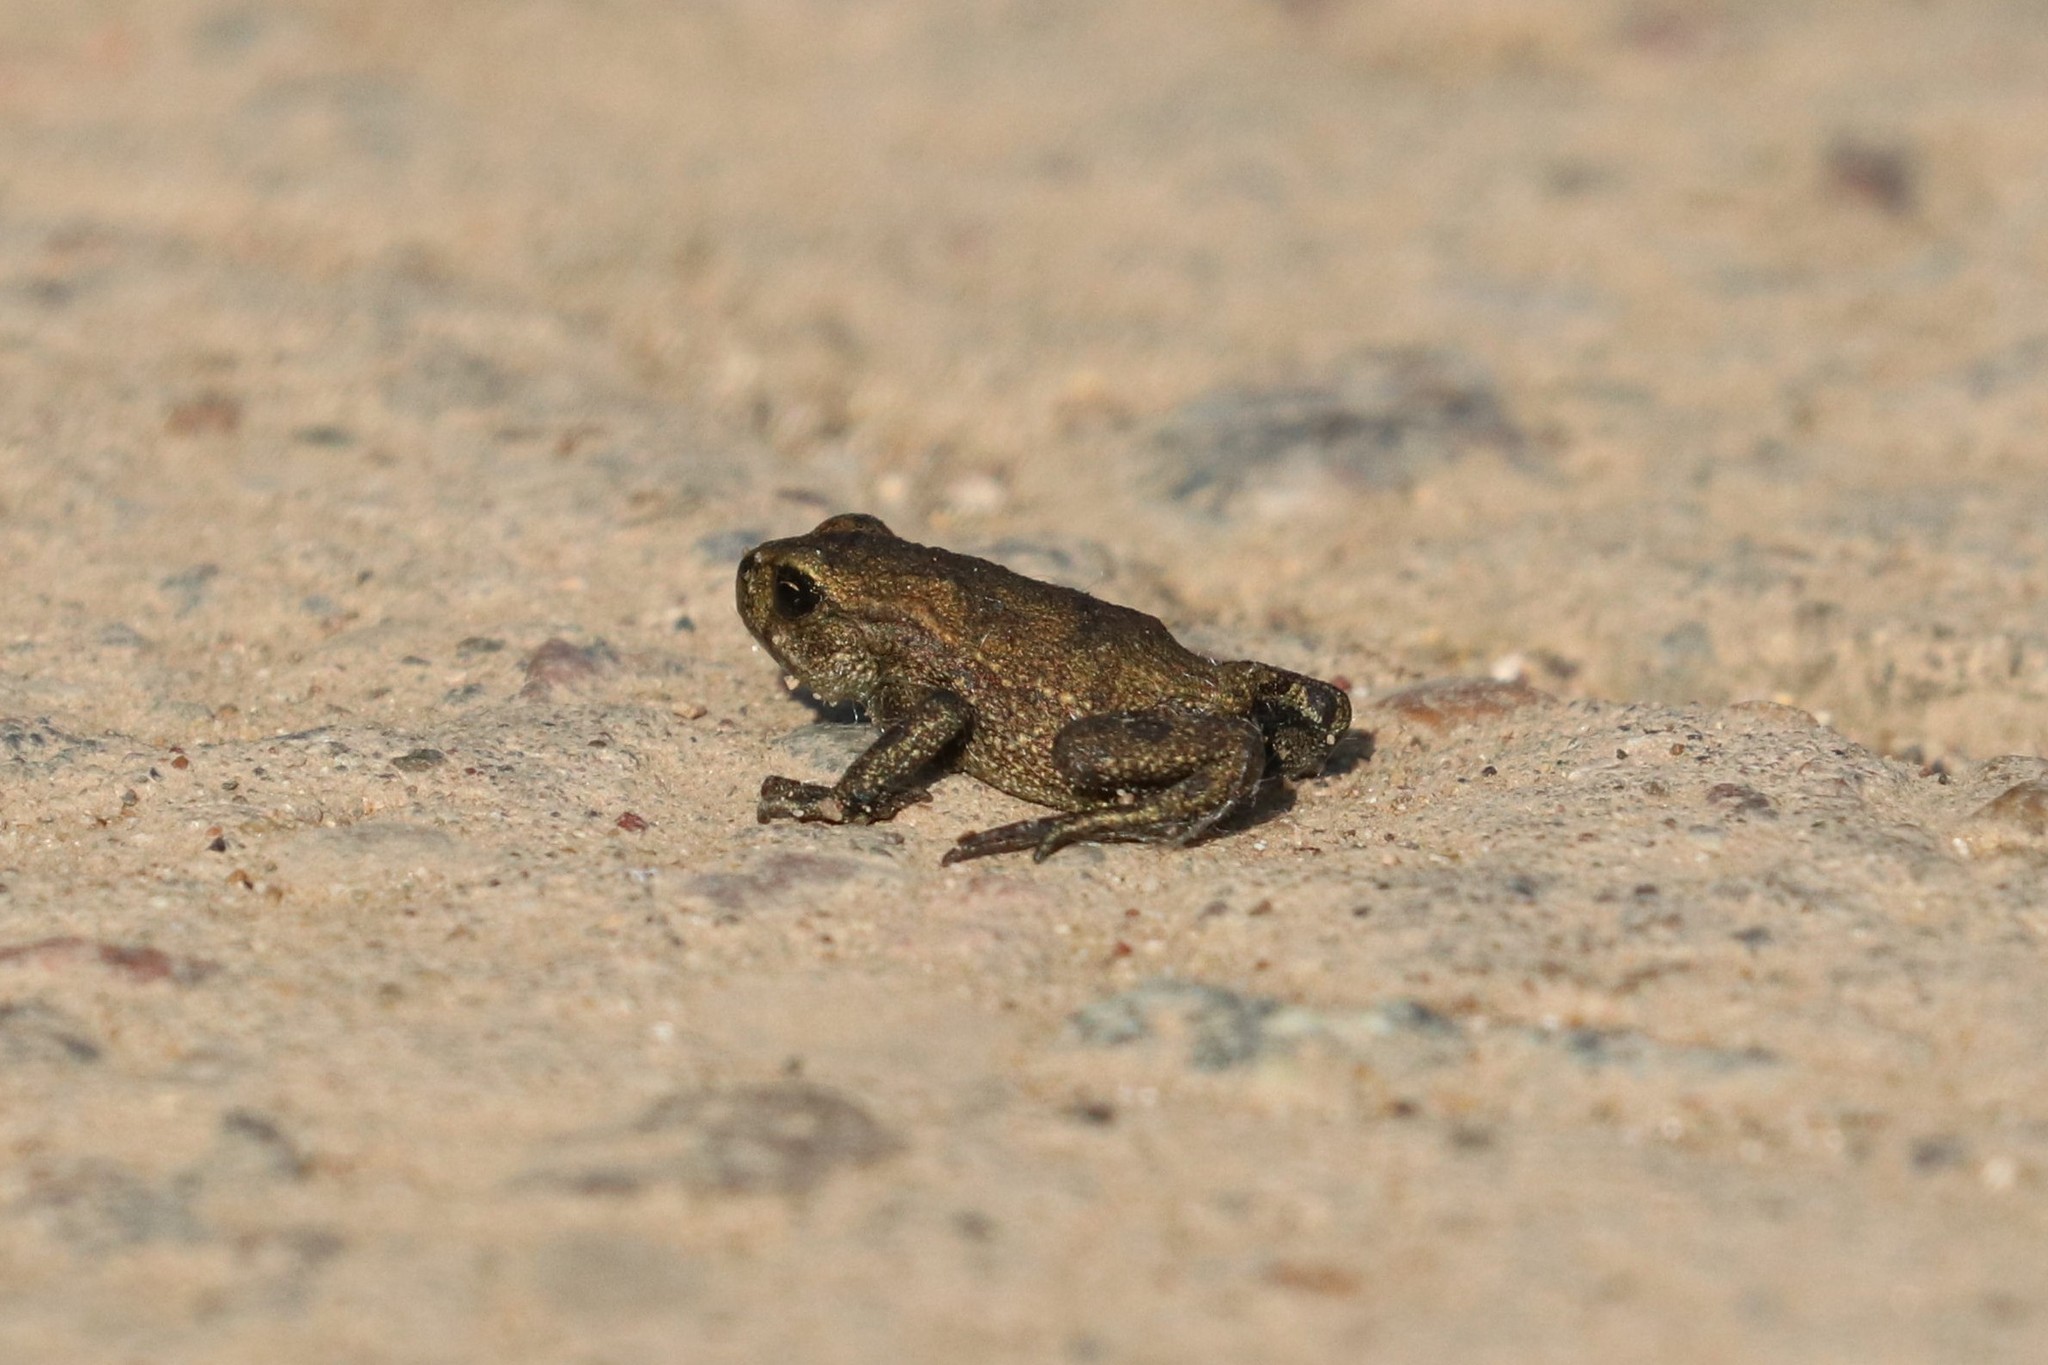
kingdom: Animalia
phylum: Chordata
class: Amphibia
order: Anura
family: Bufonidae
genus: Bufo
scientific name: Bufo bufo
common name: Common toad
